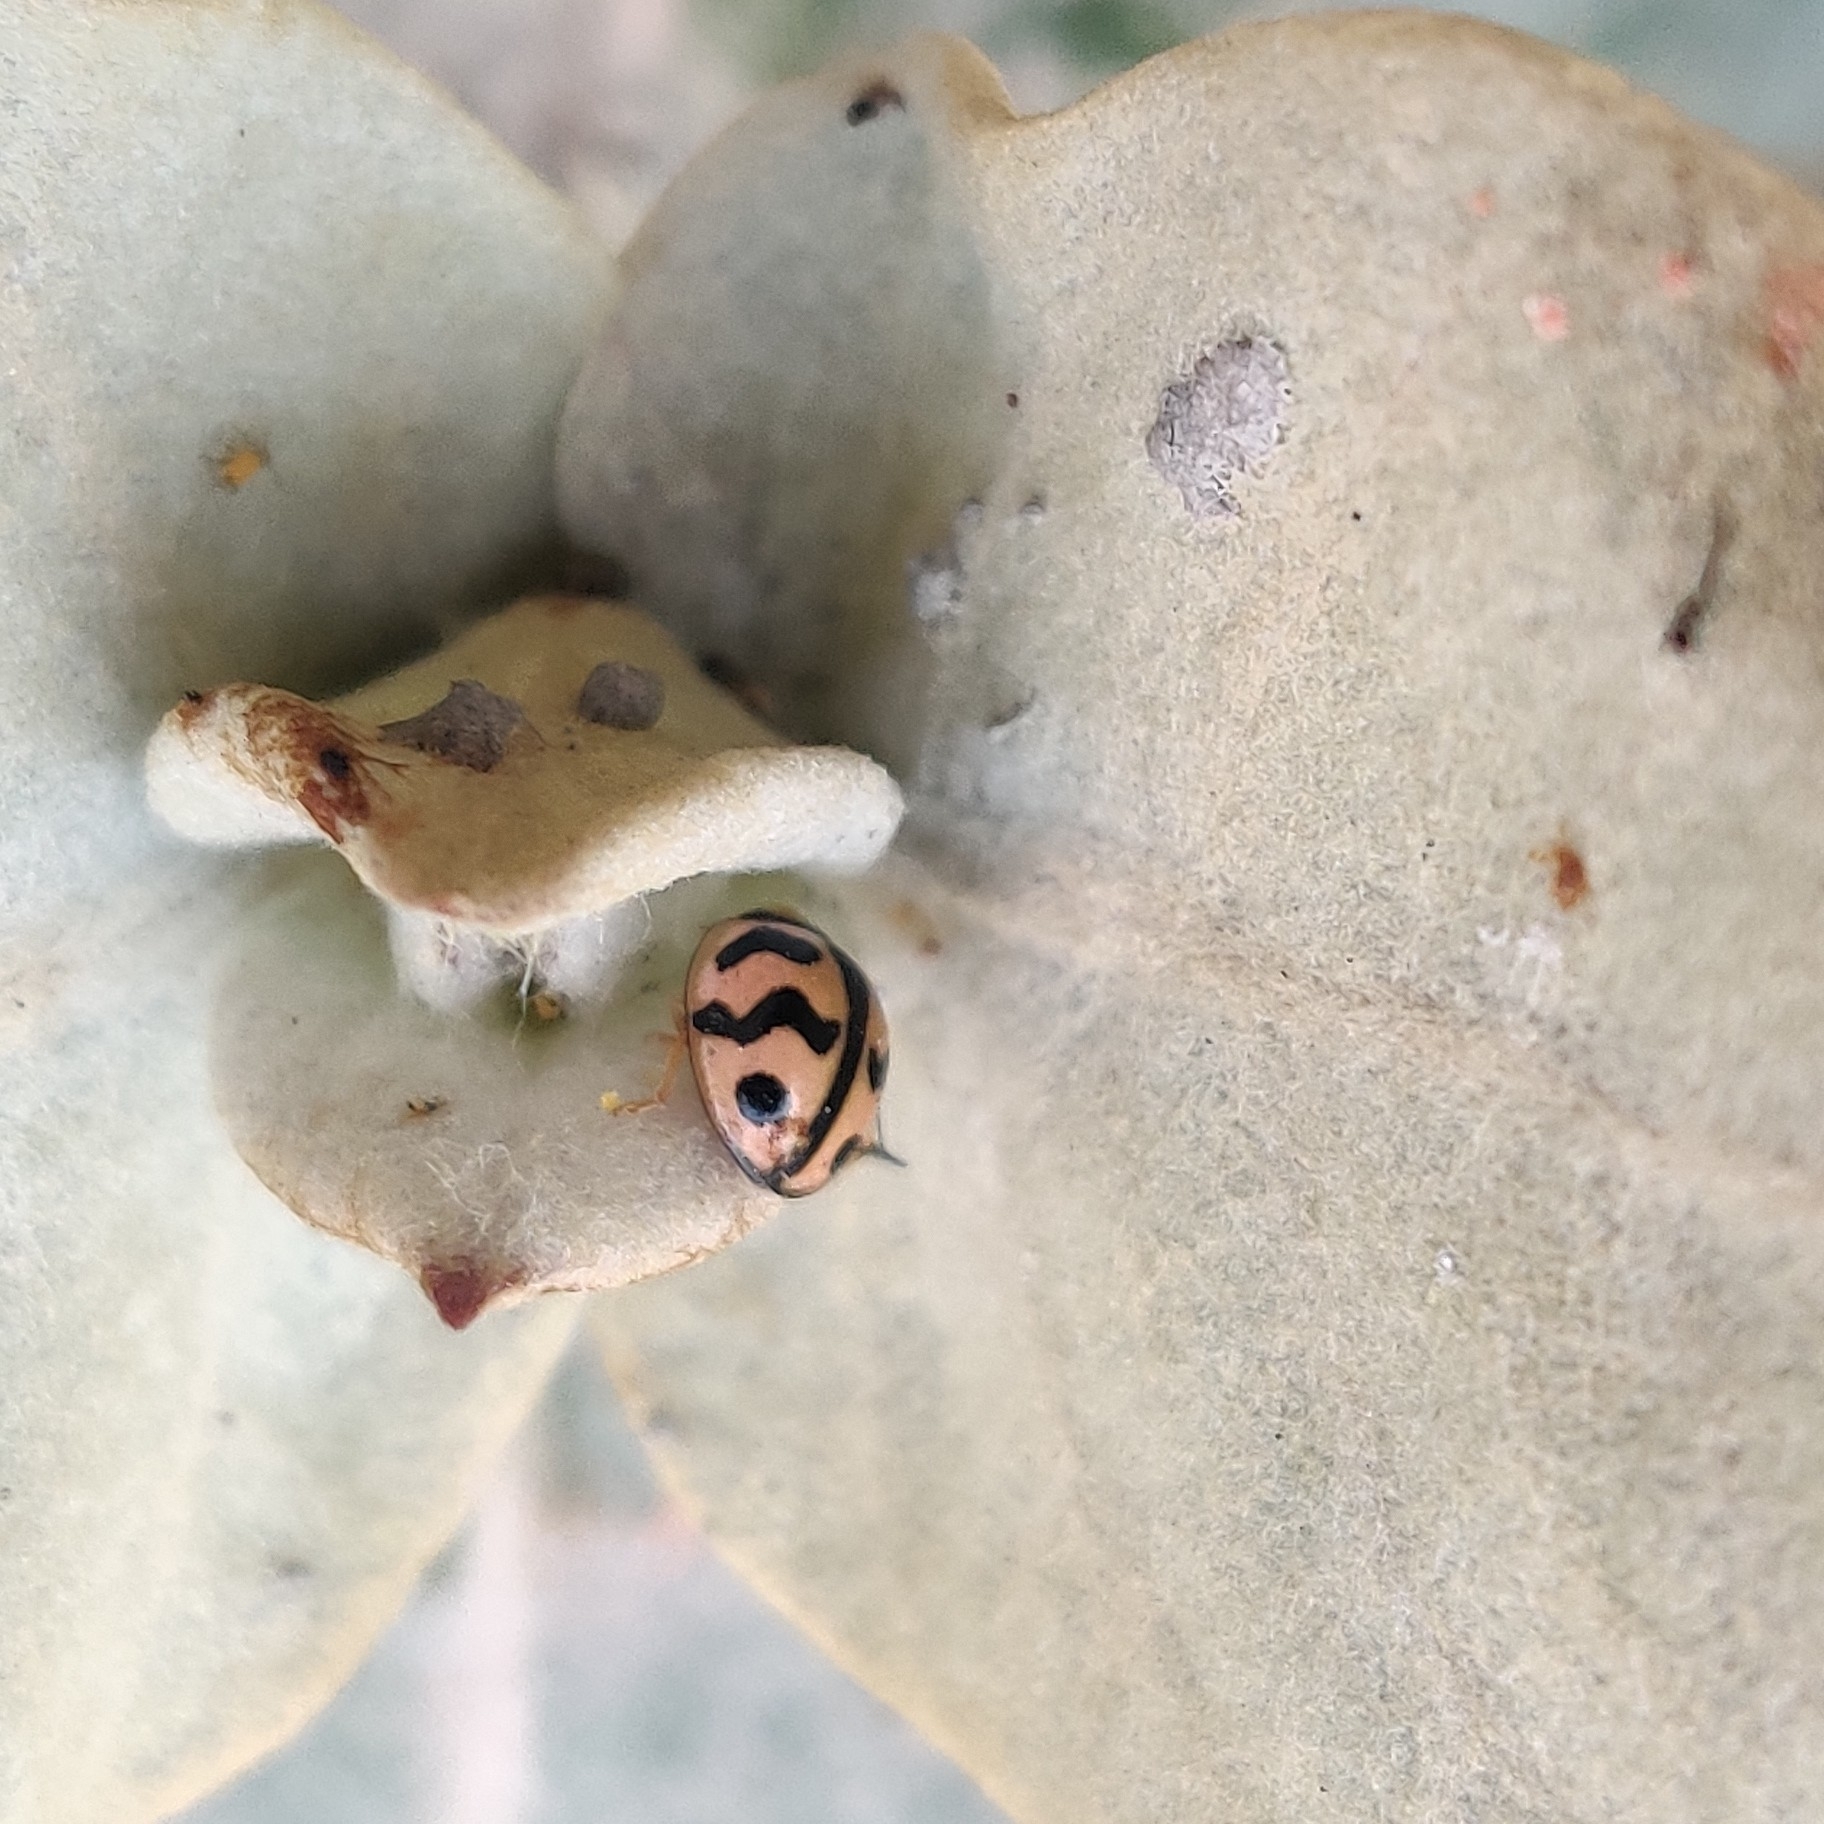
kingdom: Animalia
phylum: Arthropoda
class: Insecta
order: Coleoptera
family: Coccinellidae
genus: Cheilomenes
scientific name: Cheilomenes sexmaculata
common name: Ladybird beetle
